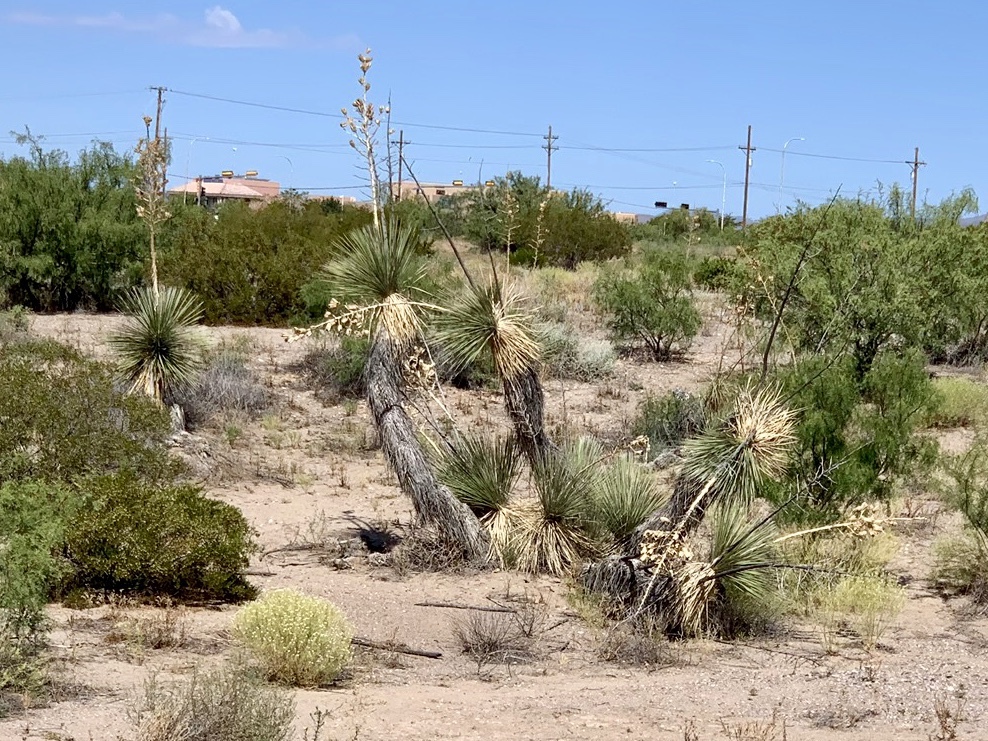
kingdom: Plantae
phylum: Tracheophyta
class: Liliopsida
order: Asparagales
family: Asparagaceae
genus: Yucca
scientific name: Yucca elata
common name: Palmella
